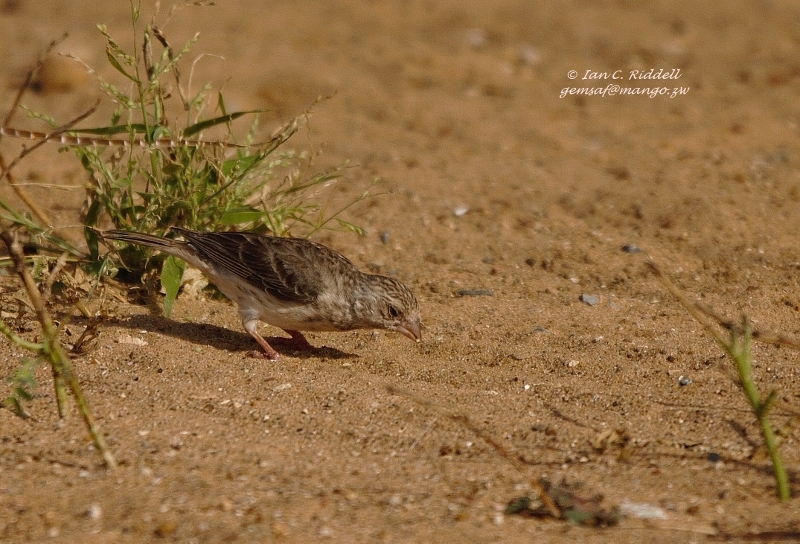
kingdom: Animalia
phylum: Chordata
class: Aves
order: Passeriformes
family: Fringillidae
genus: Crithagra
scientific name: Crithagra leucopygia
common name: White-rumped seedeater
